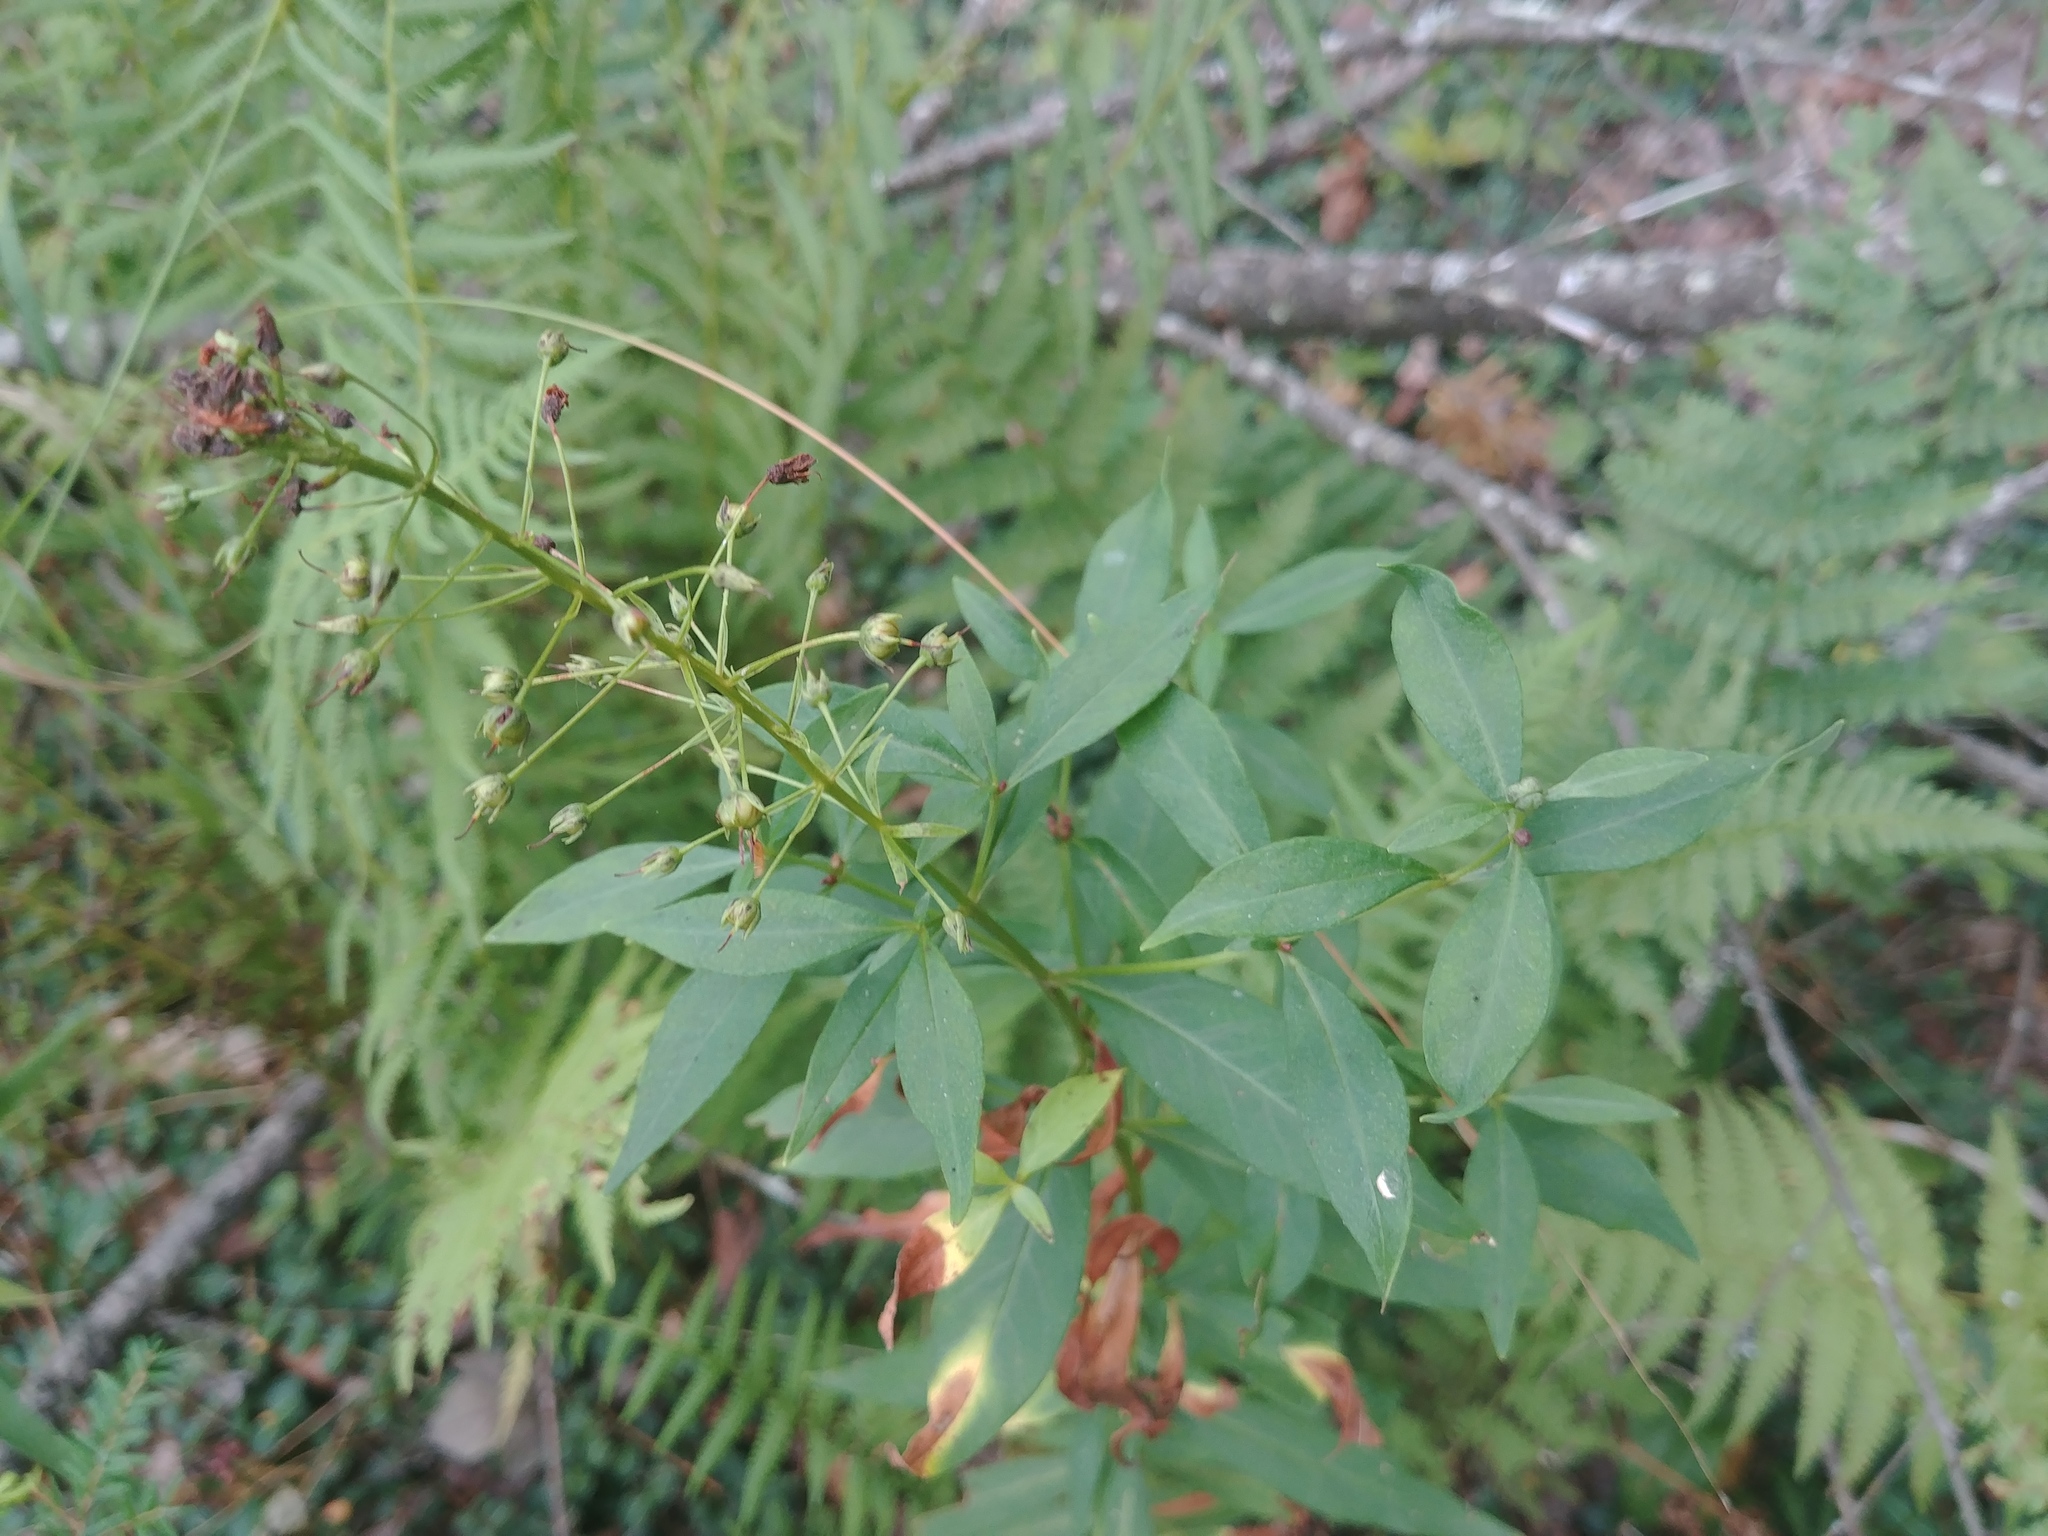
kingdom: Plantae
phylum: Tracheophyta
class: Magnoliopsida
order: Ericales
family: Primulaceae
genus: Lysimachia
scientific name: Lysimachia terrestris
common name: Lake loosestrife
